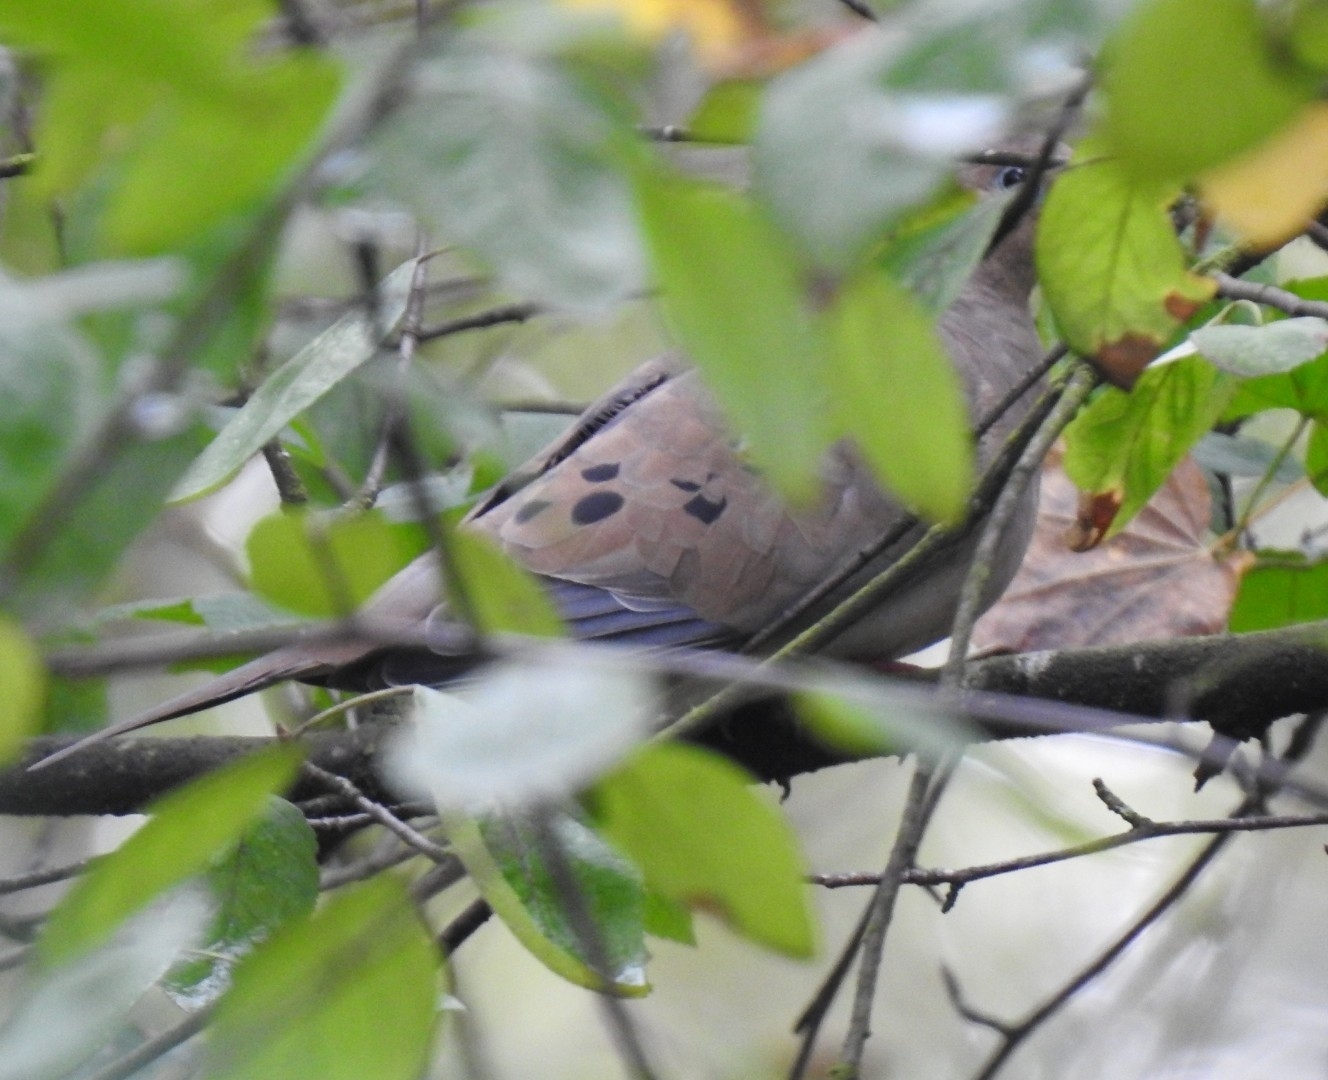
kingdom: Animalia
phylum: Chordata
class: Aves
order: Columbiformes
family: Columbidae
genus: Zenaida
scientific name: Zenaida macroura
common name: Mourning dove
